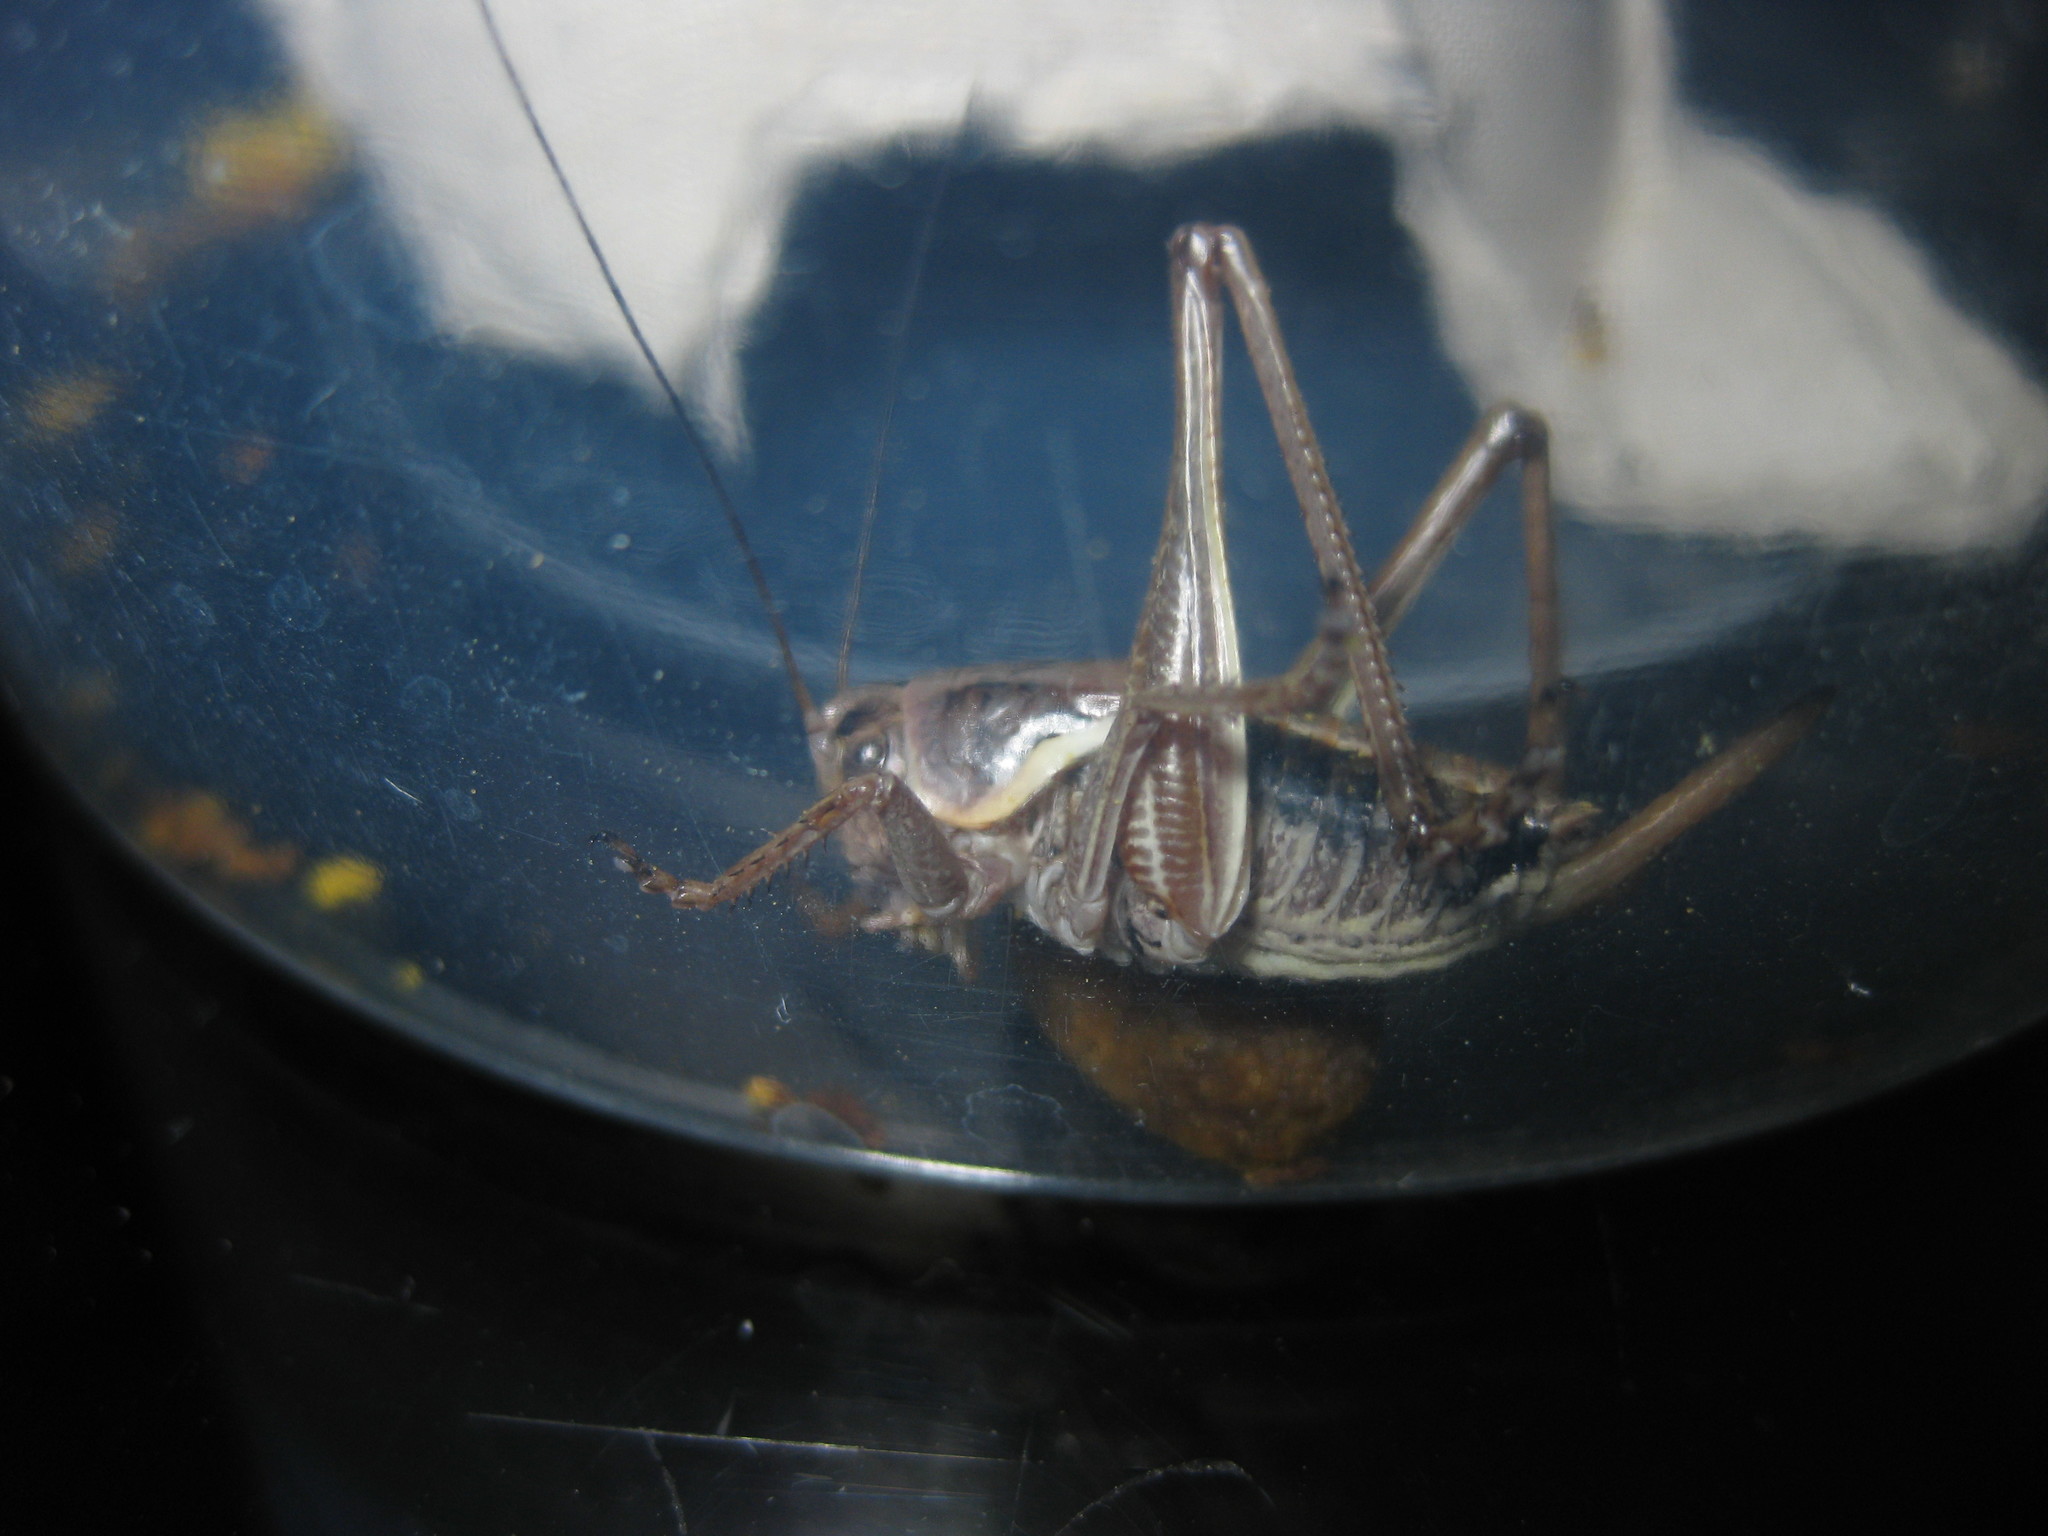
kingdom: Animalia
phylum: Arthropoda
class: Insecta
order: Orthoptera
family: Tettigoniidae
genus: Anabrus
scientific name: Anabrus longipes
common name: Long-legged anabrus
